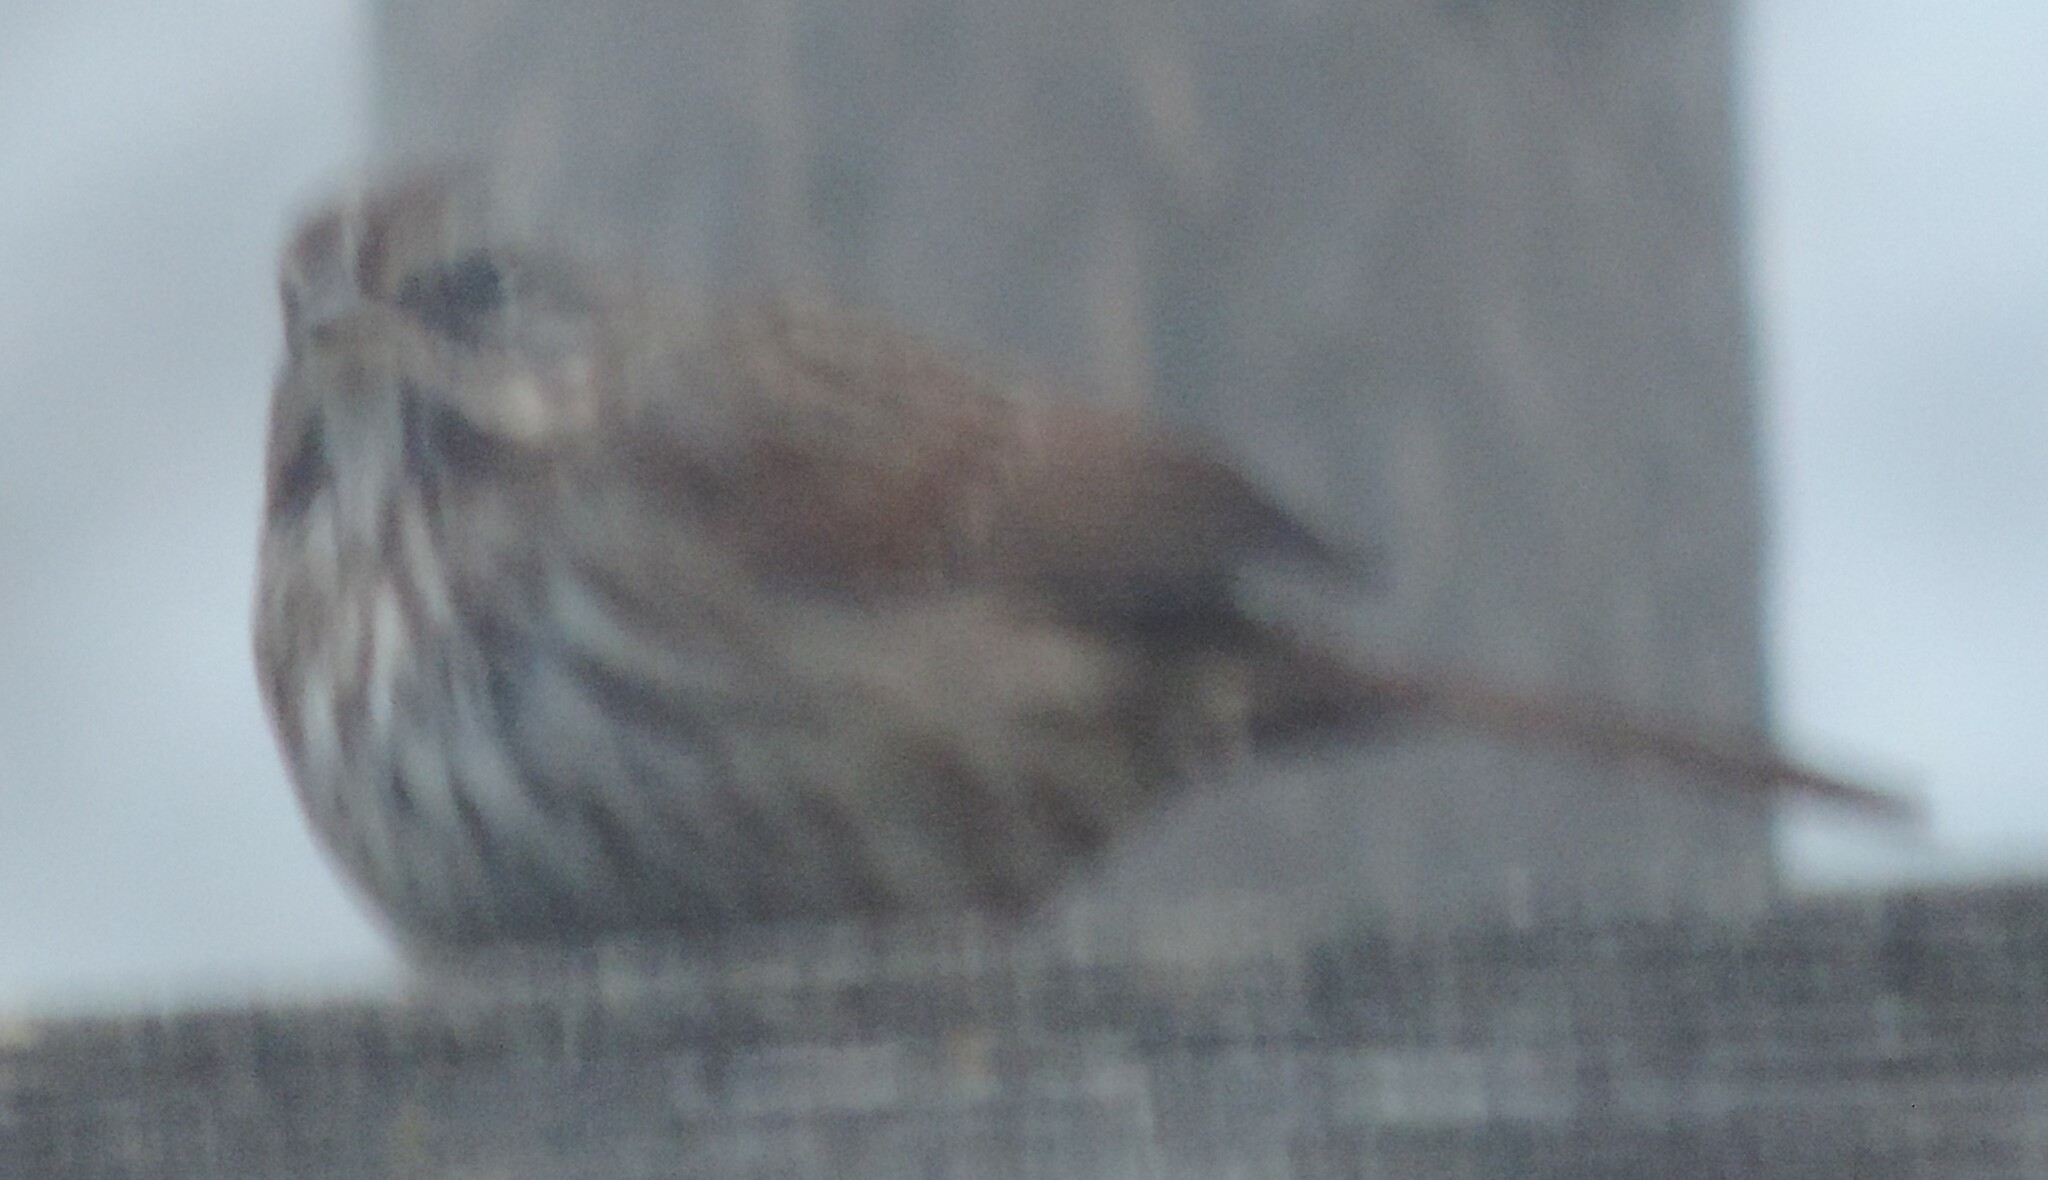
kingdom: Animalia
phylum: Chordata
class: Aves
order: Passeriformes
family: Passerellidae
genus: Melospiza
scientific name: Melospiza melodia
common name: Song sparrow
